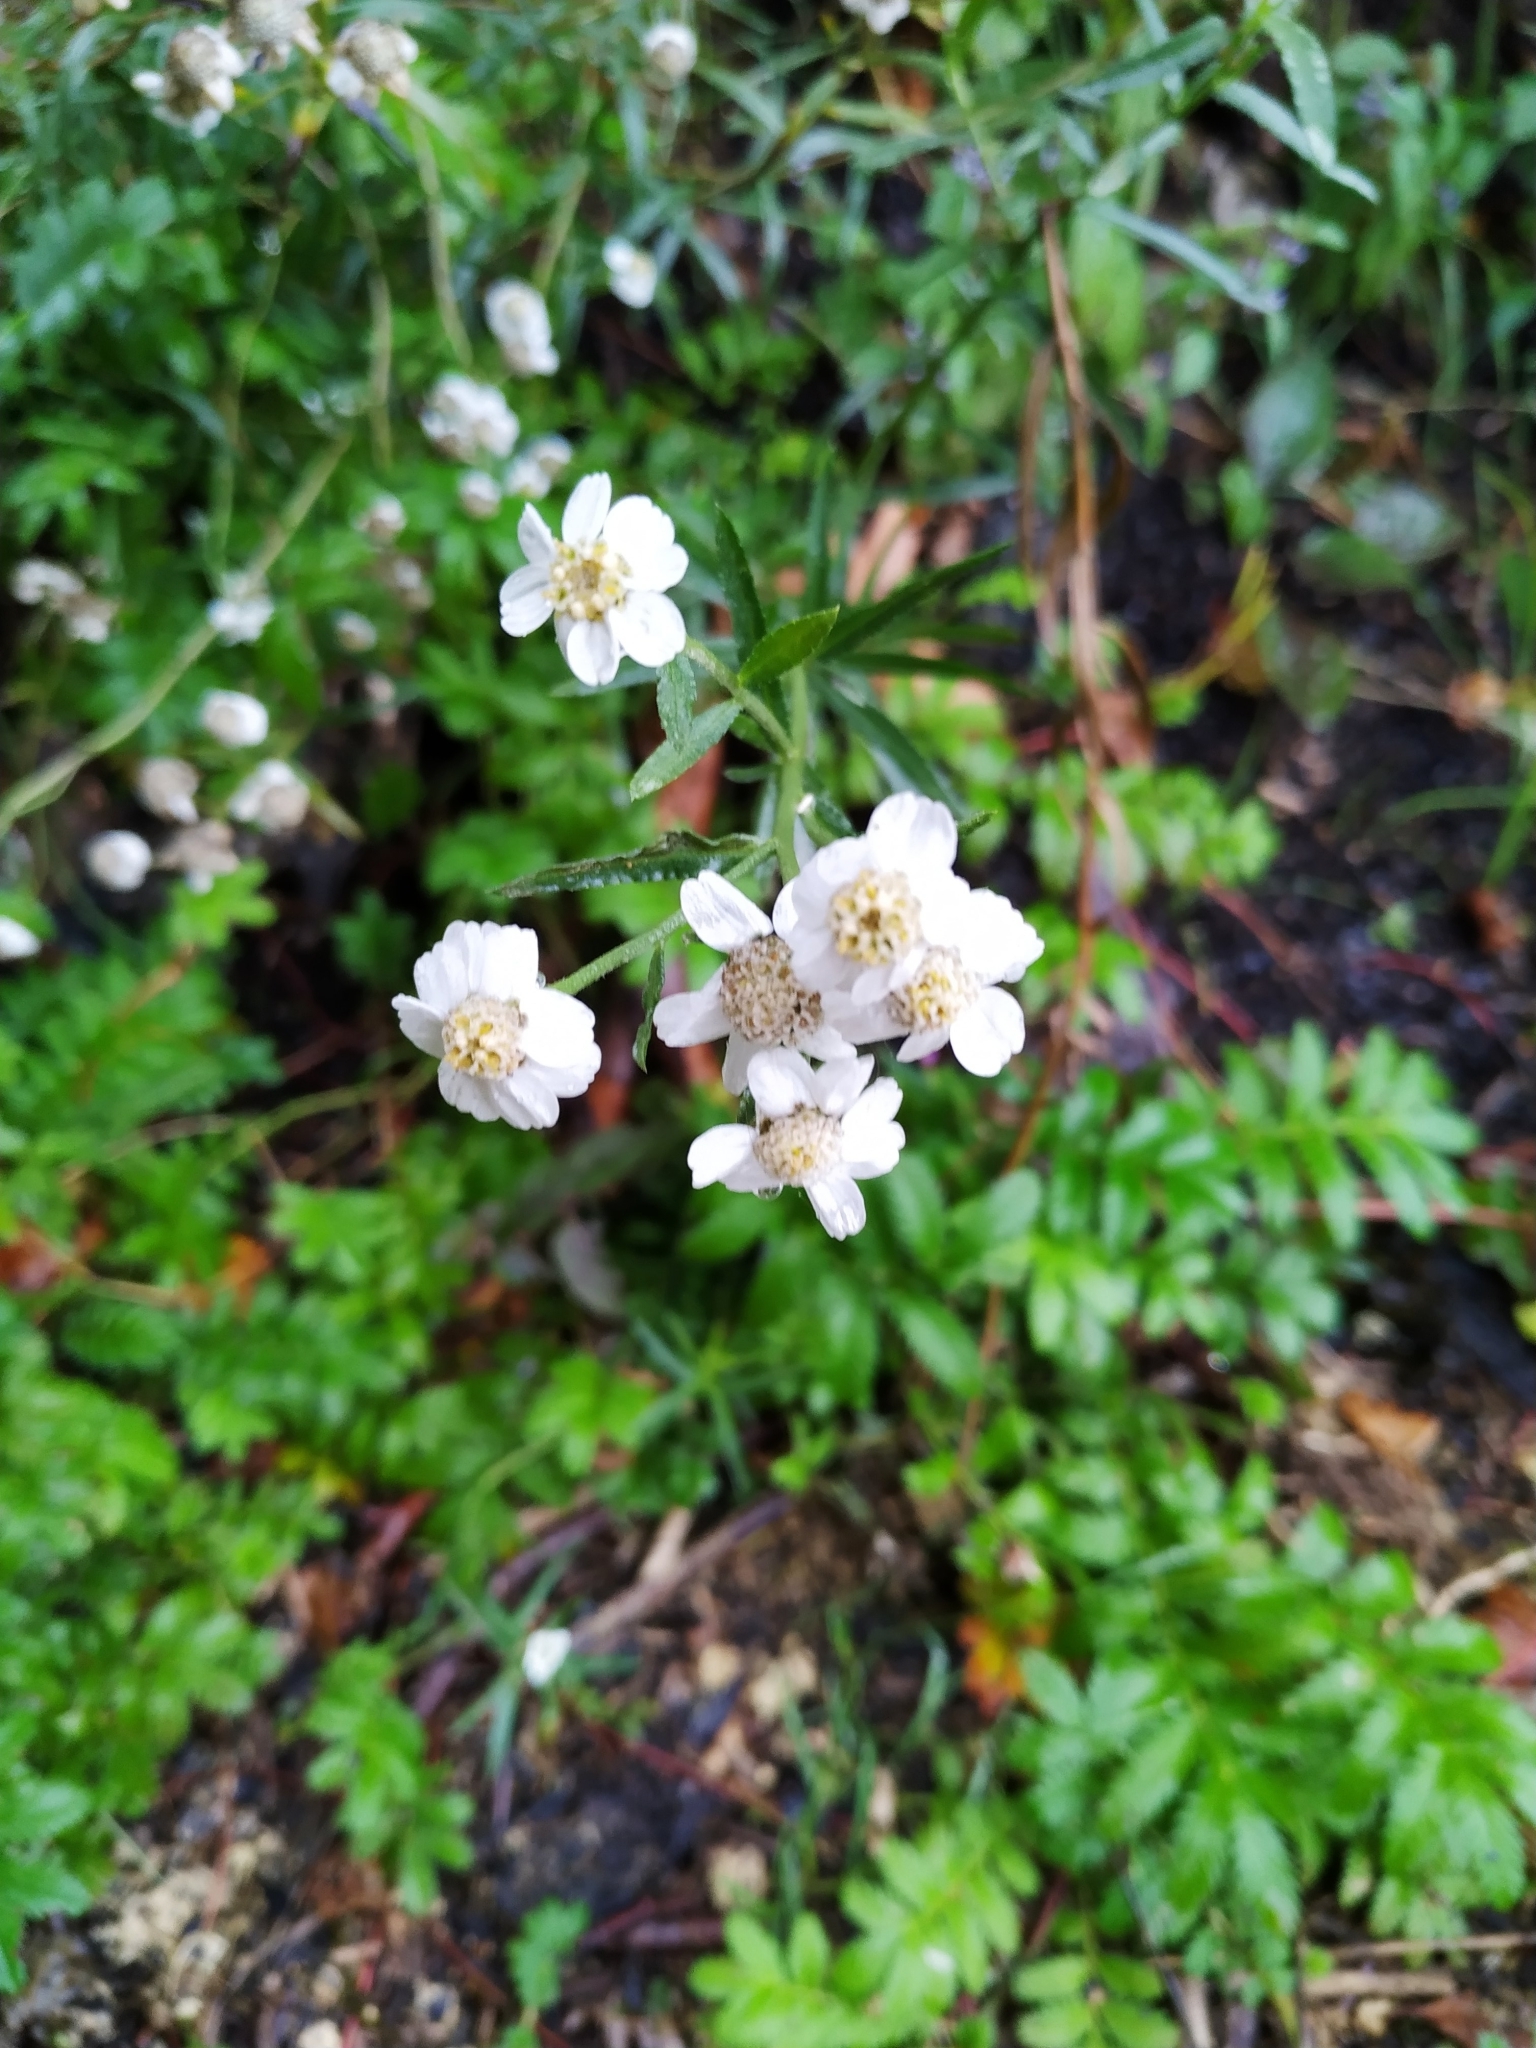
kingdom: Plantae
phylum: Tracheophyta
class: Magnoliopsida
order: Asterales
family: Asteraceae
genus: Achillea
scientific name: Achillea ptarmica
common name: Sneezeweed
